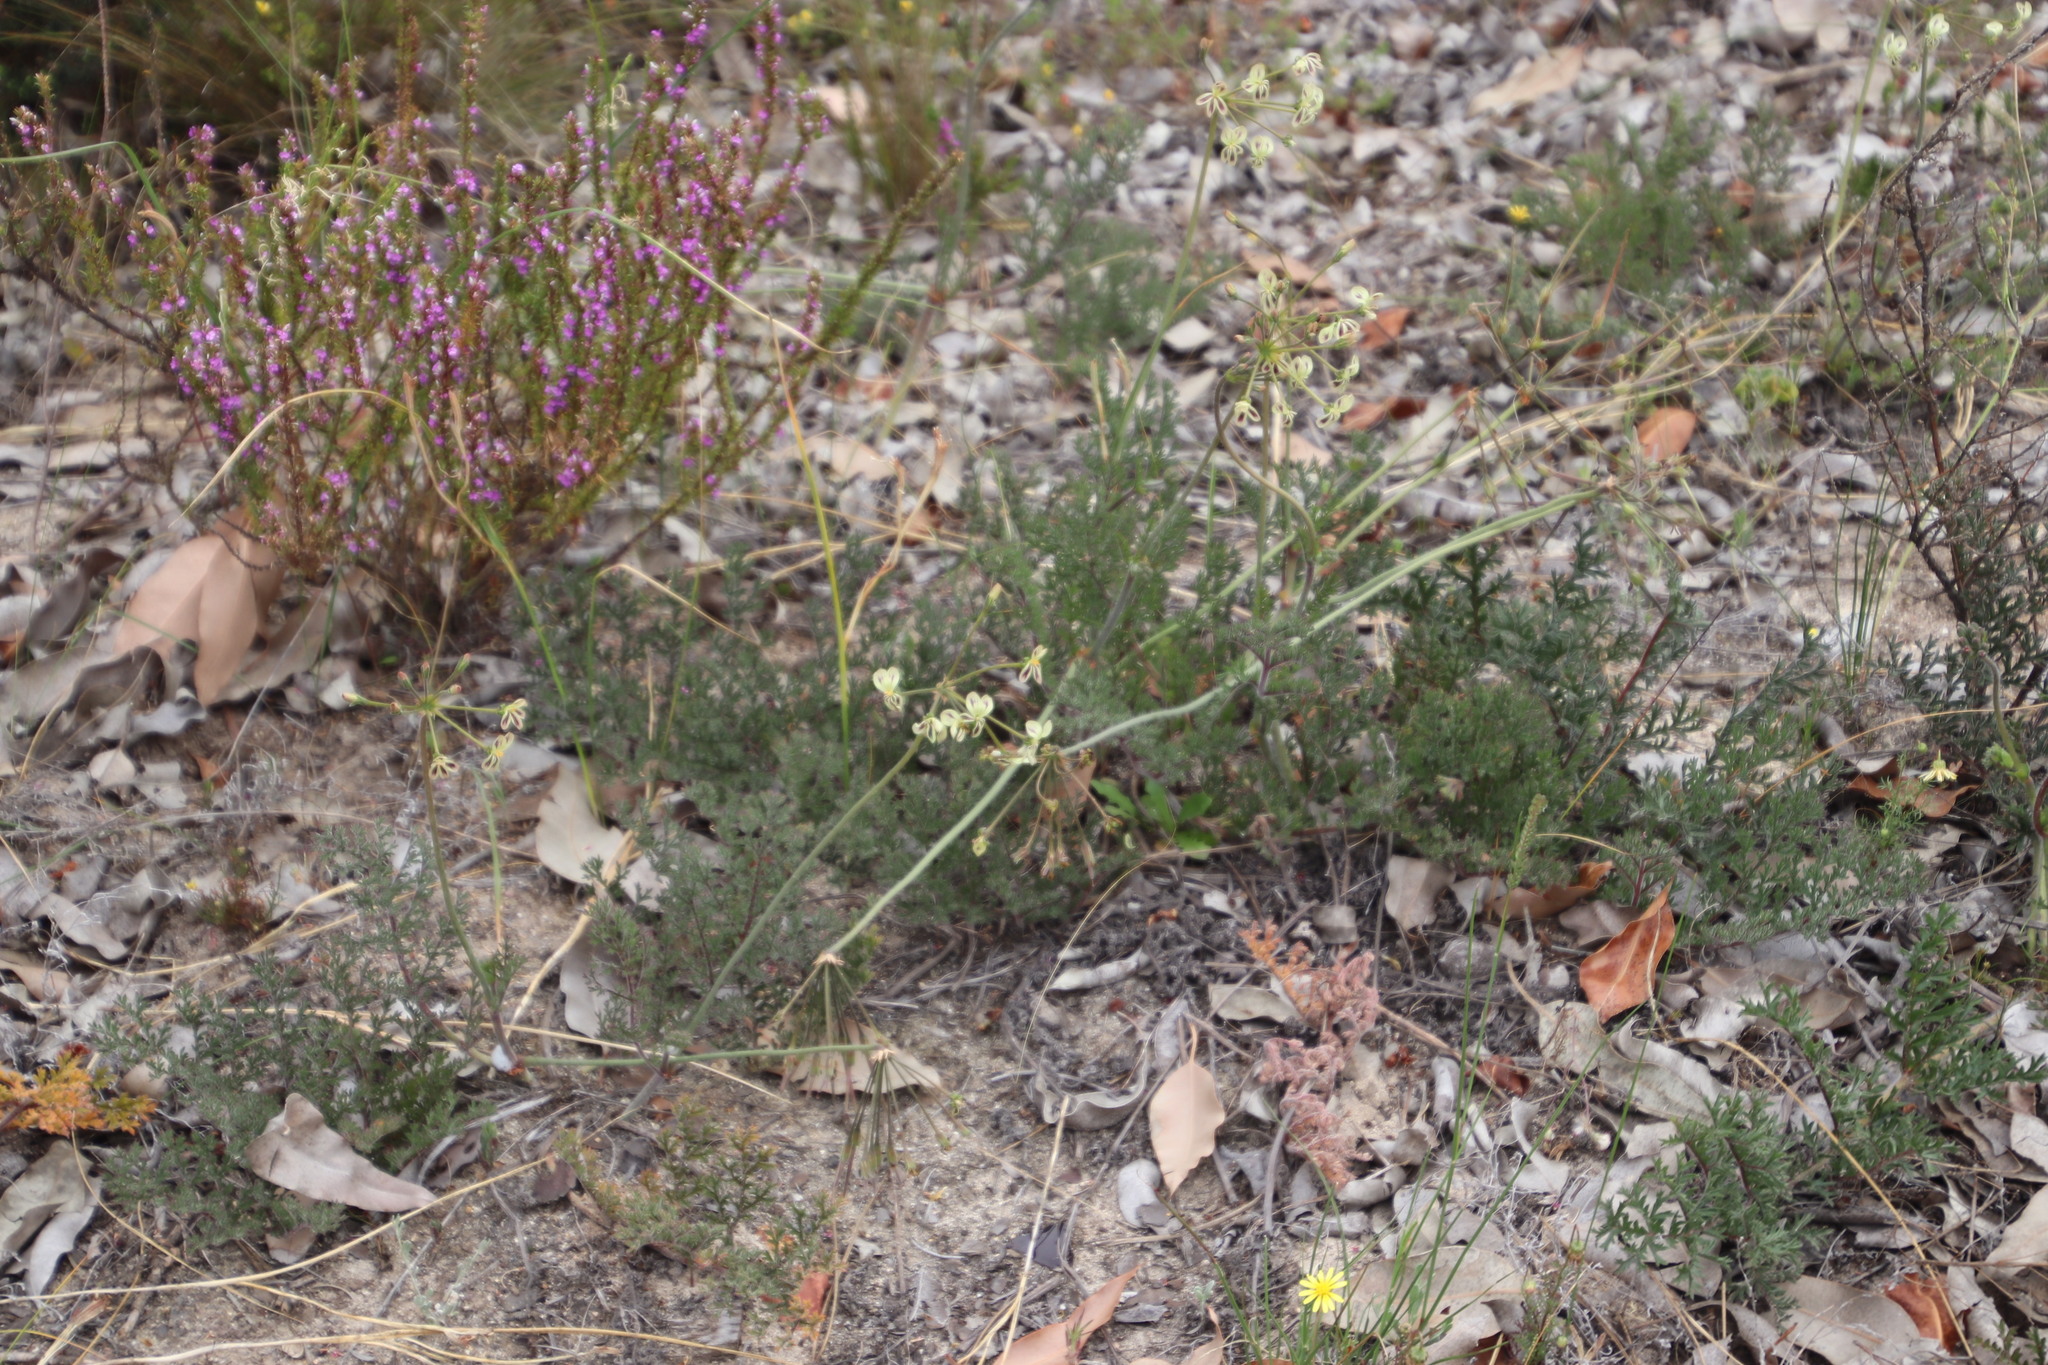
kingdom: Plantae
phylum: Tracheophyta
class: Magnoliopsida
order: Geraniales
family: Geraniaceae
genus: Pelargonium
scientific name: Pelargonium triste
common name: Night-scent pelargonium
